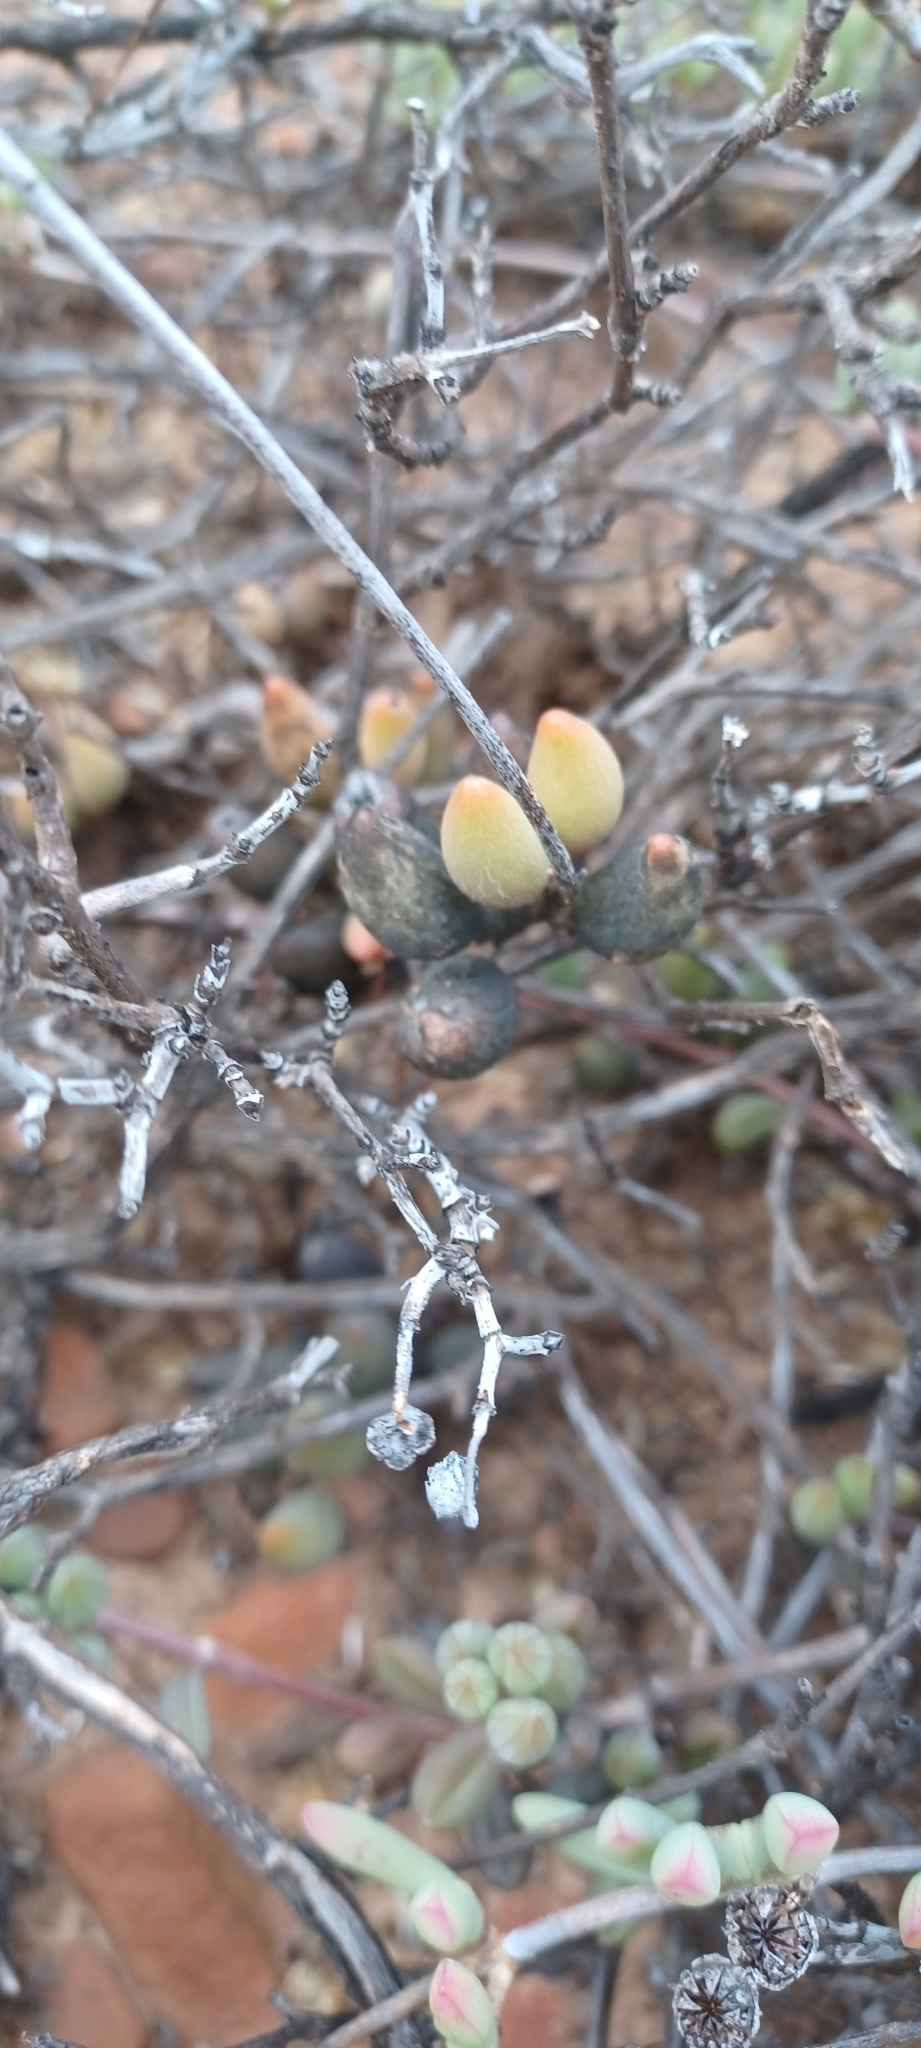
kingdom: Plantae
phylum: Tracheophyta
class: Magnoliopsida
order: Saxifragales
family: Crassulaceae
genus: Adromischus
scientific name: Adromischus filicaulis
